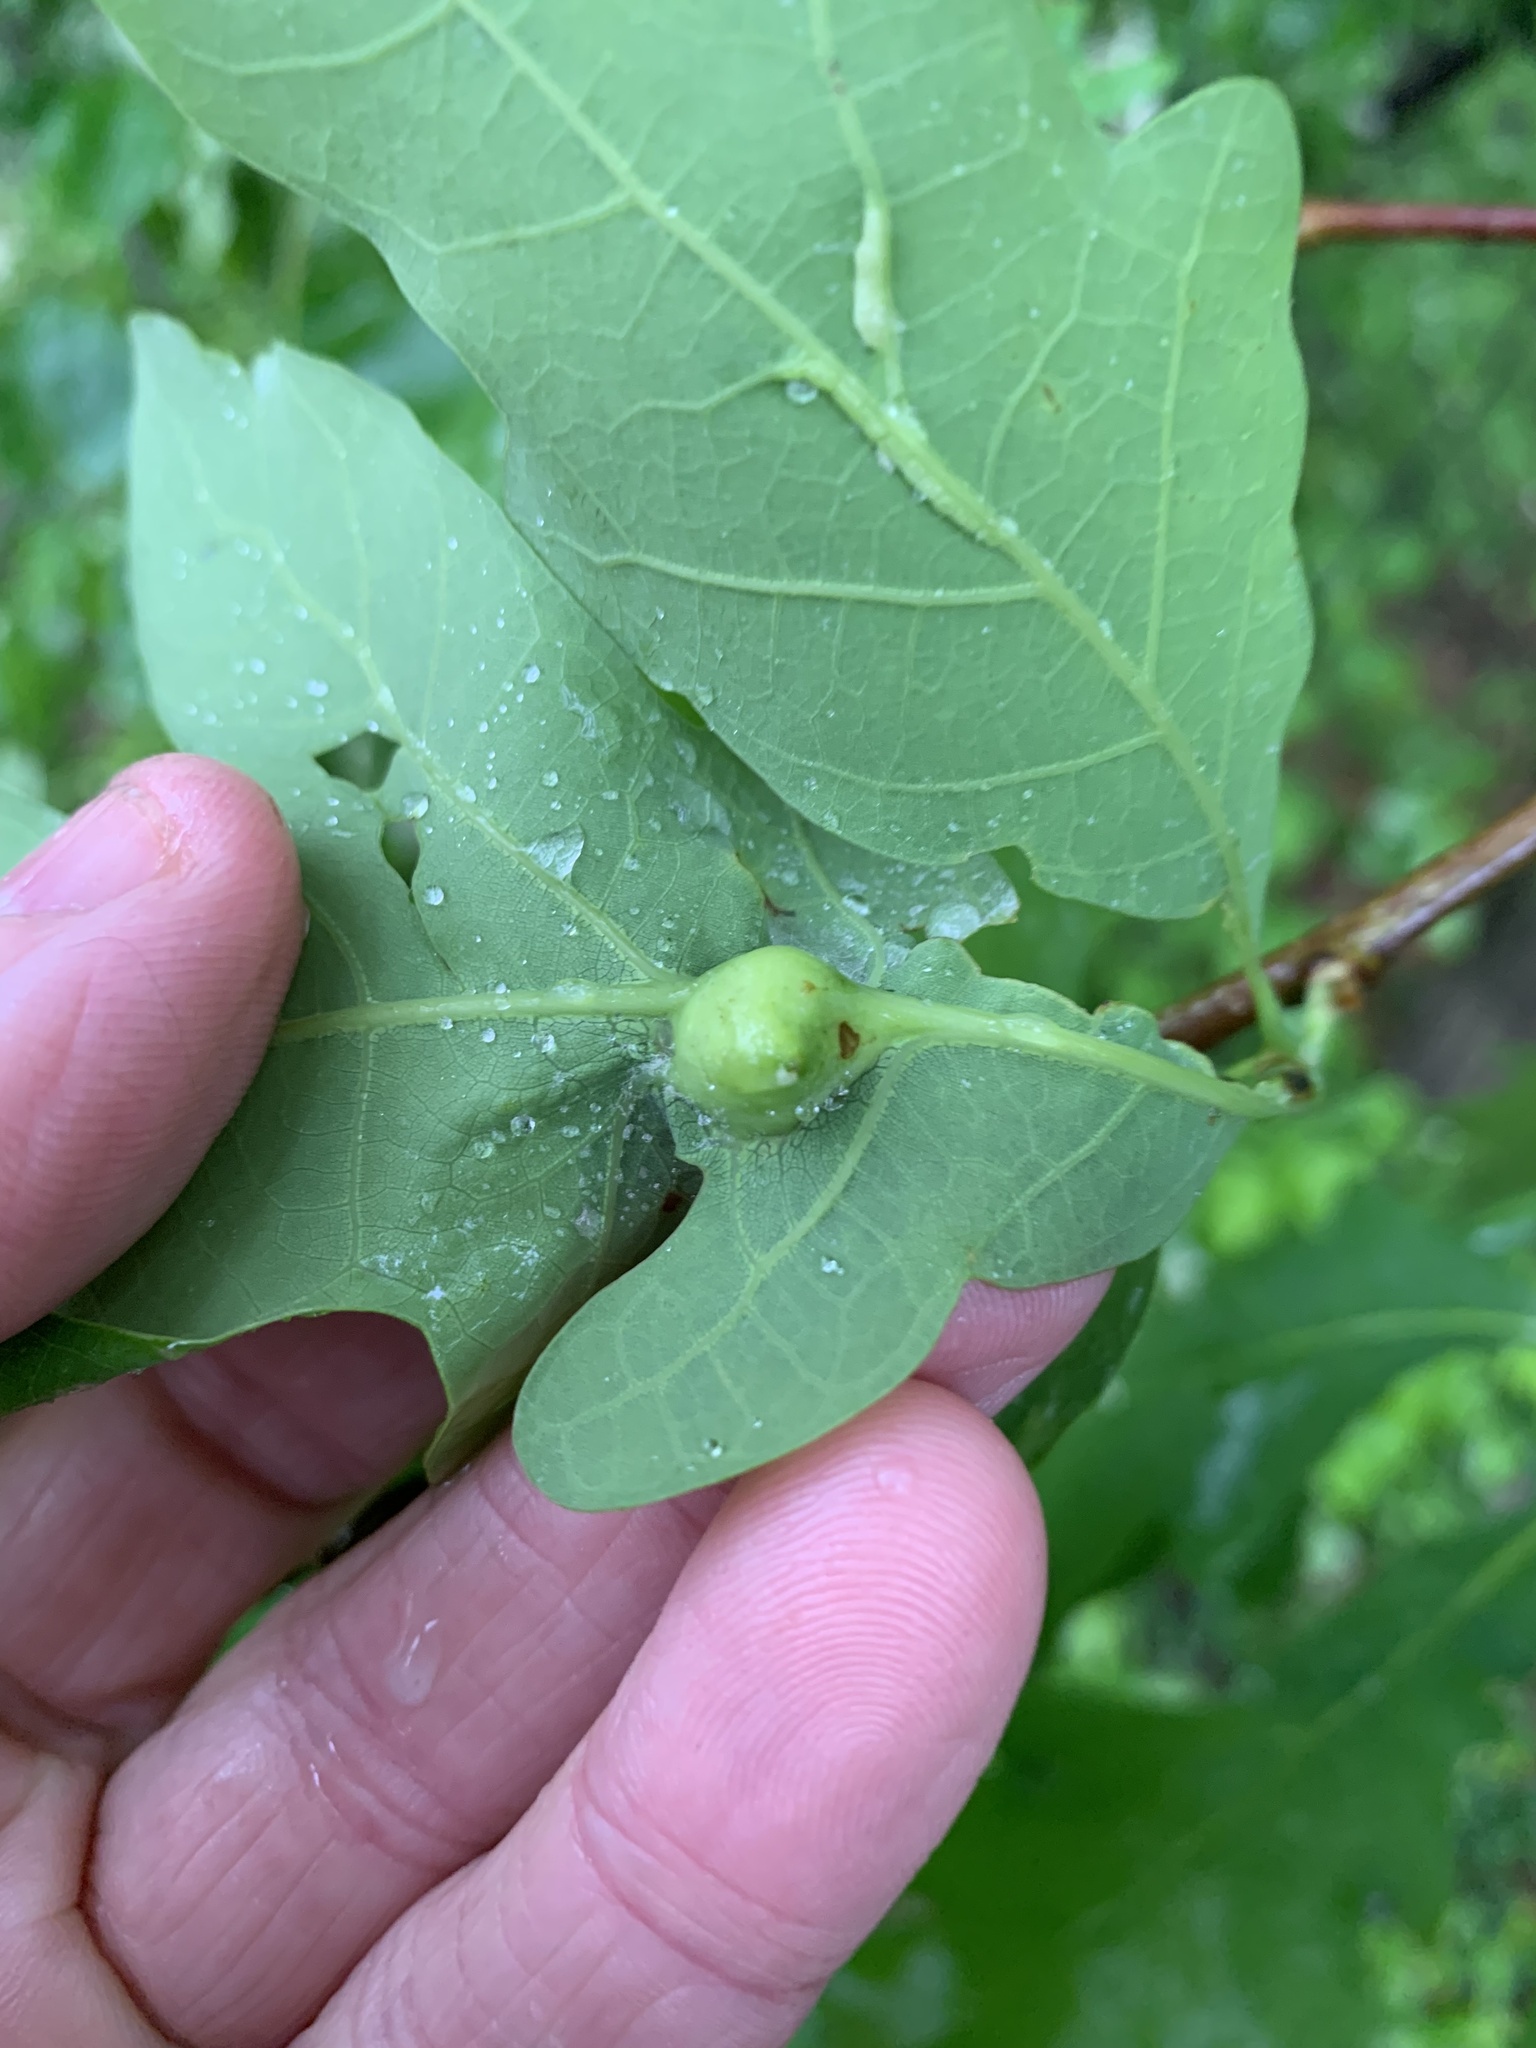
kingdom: Animalia
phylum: Arthropoda
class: Insecta
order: Hymenoptera
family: Cynipidae
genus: Andricus
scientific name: Andricus
